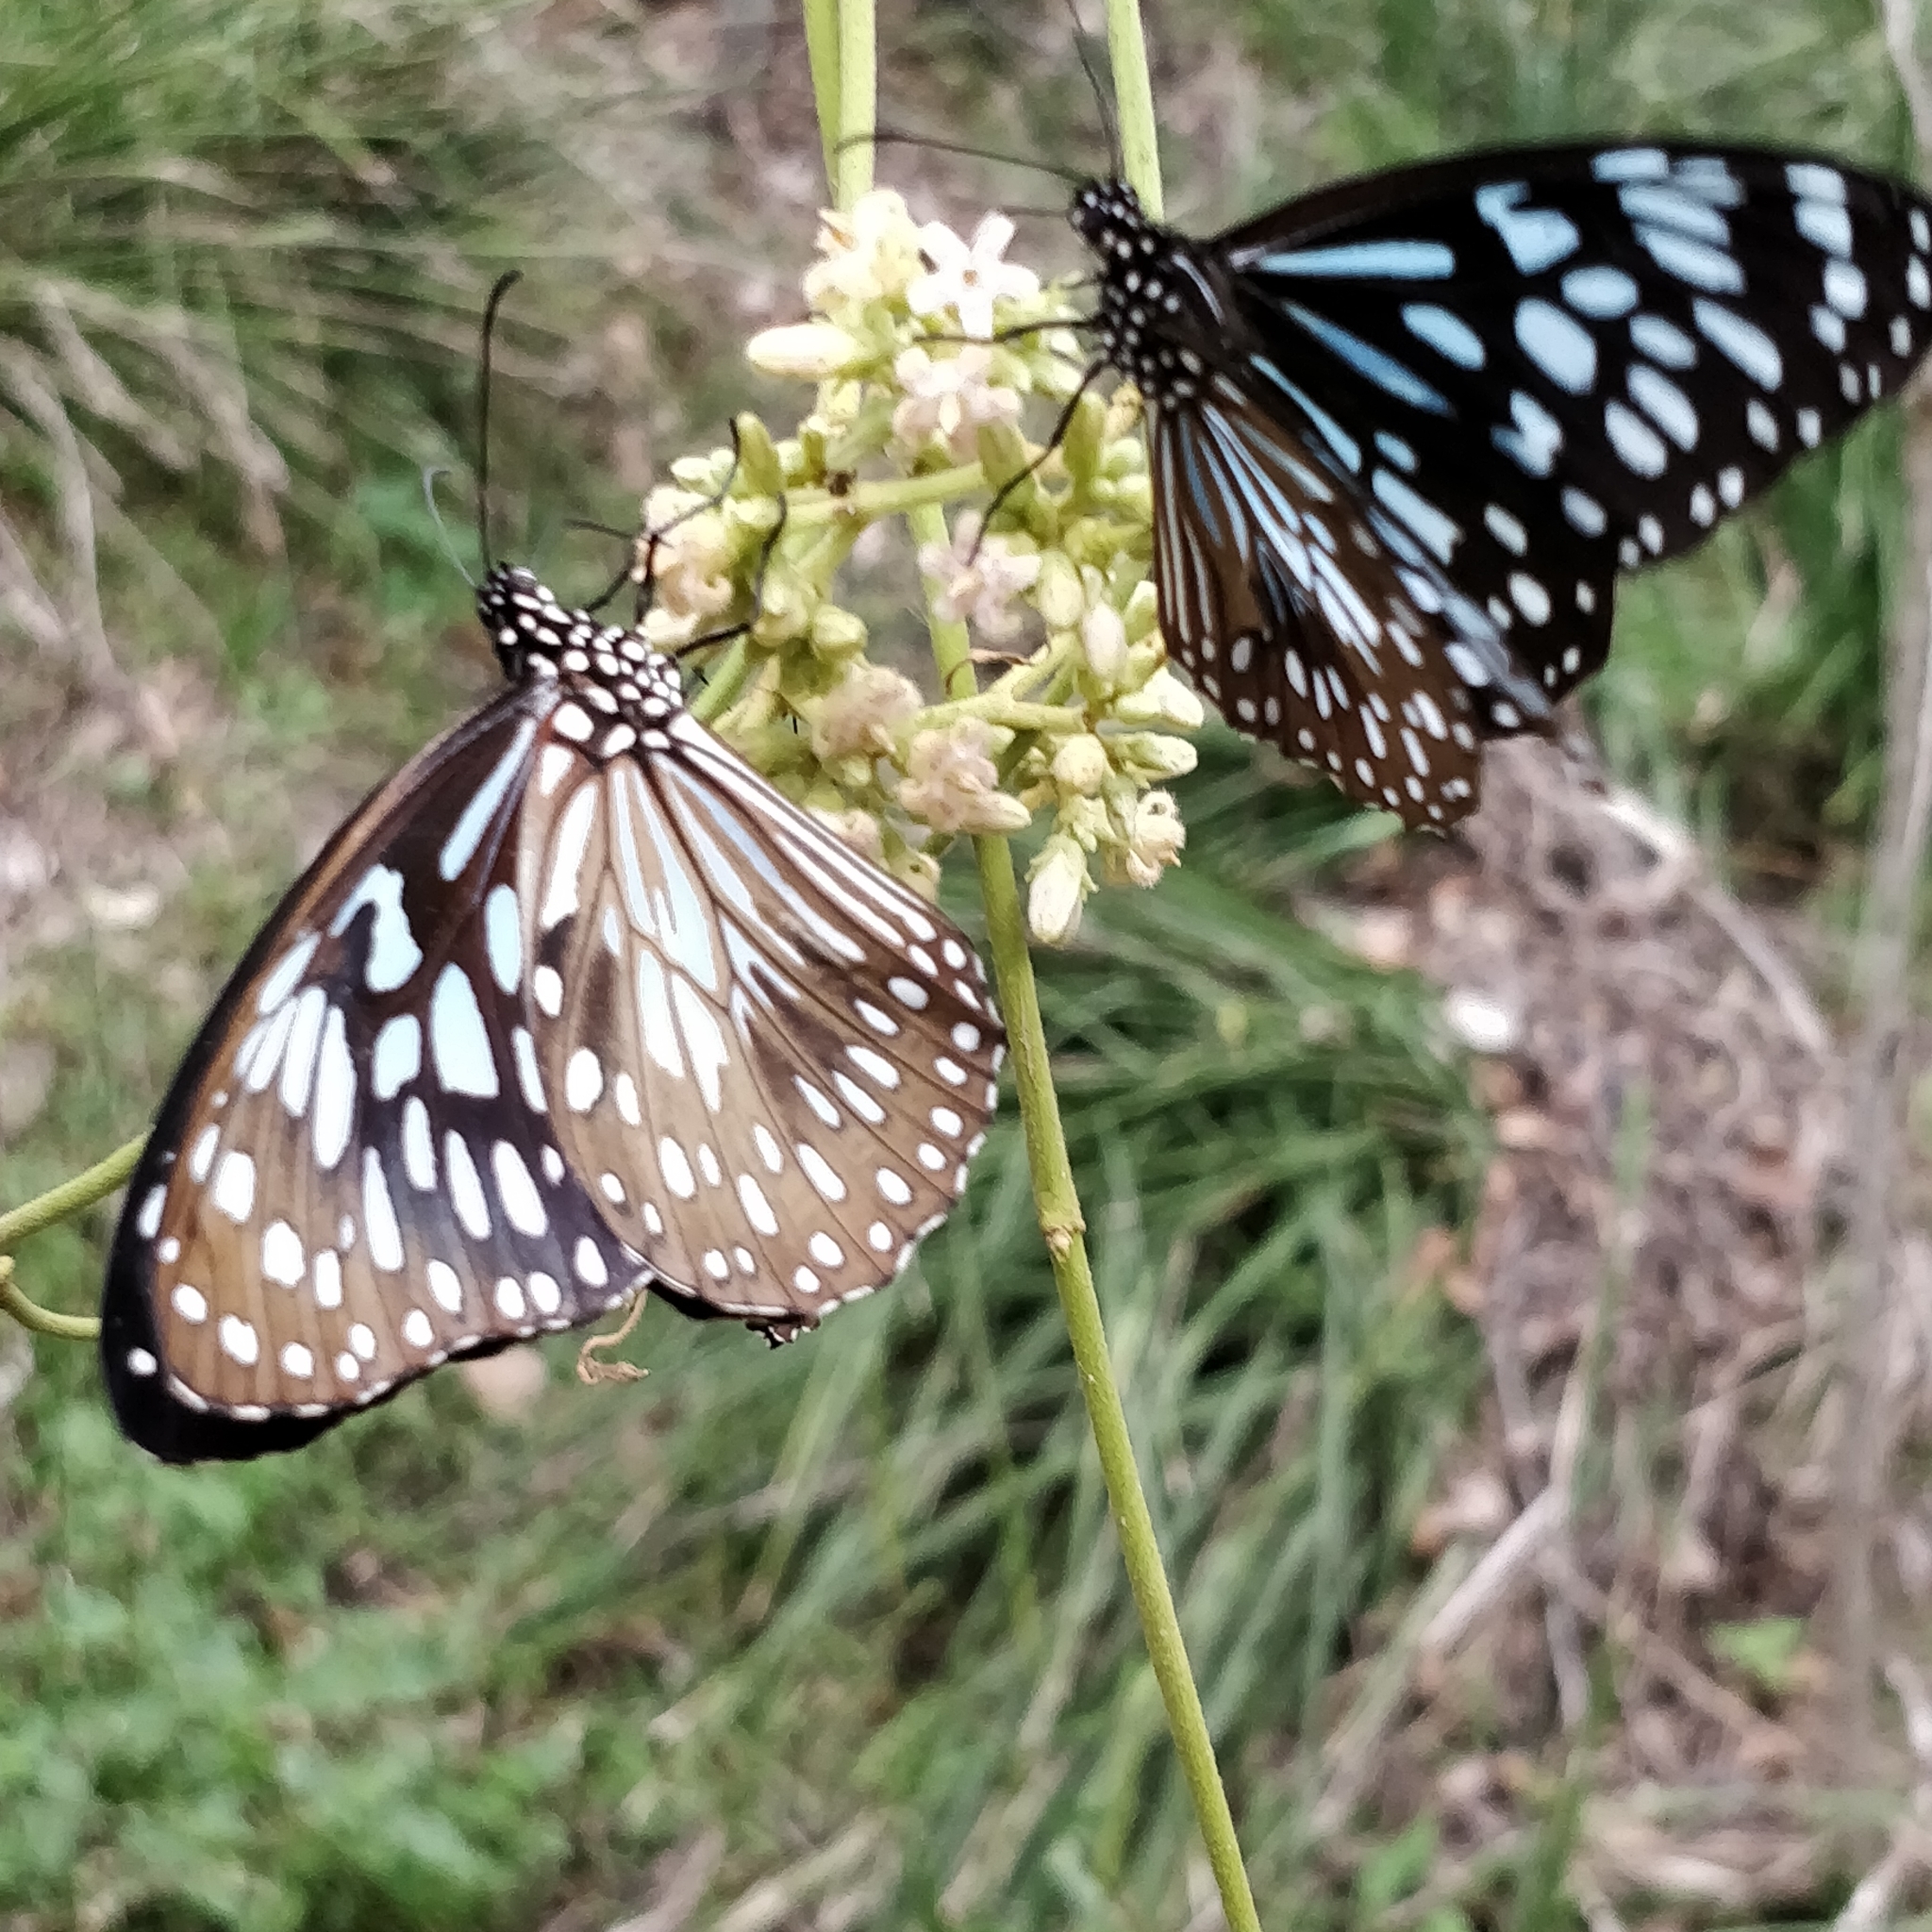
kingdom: Animalia
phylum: Arthropoda
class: Insecta
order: Lepidoptera
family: Nymphalidae
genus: Tirumala
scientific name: Tirumala hamata
